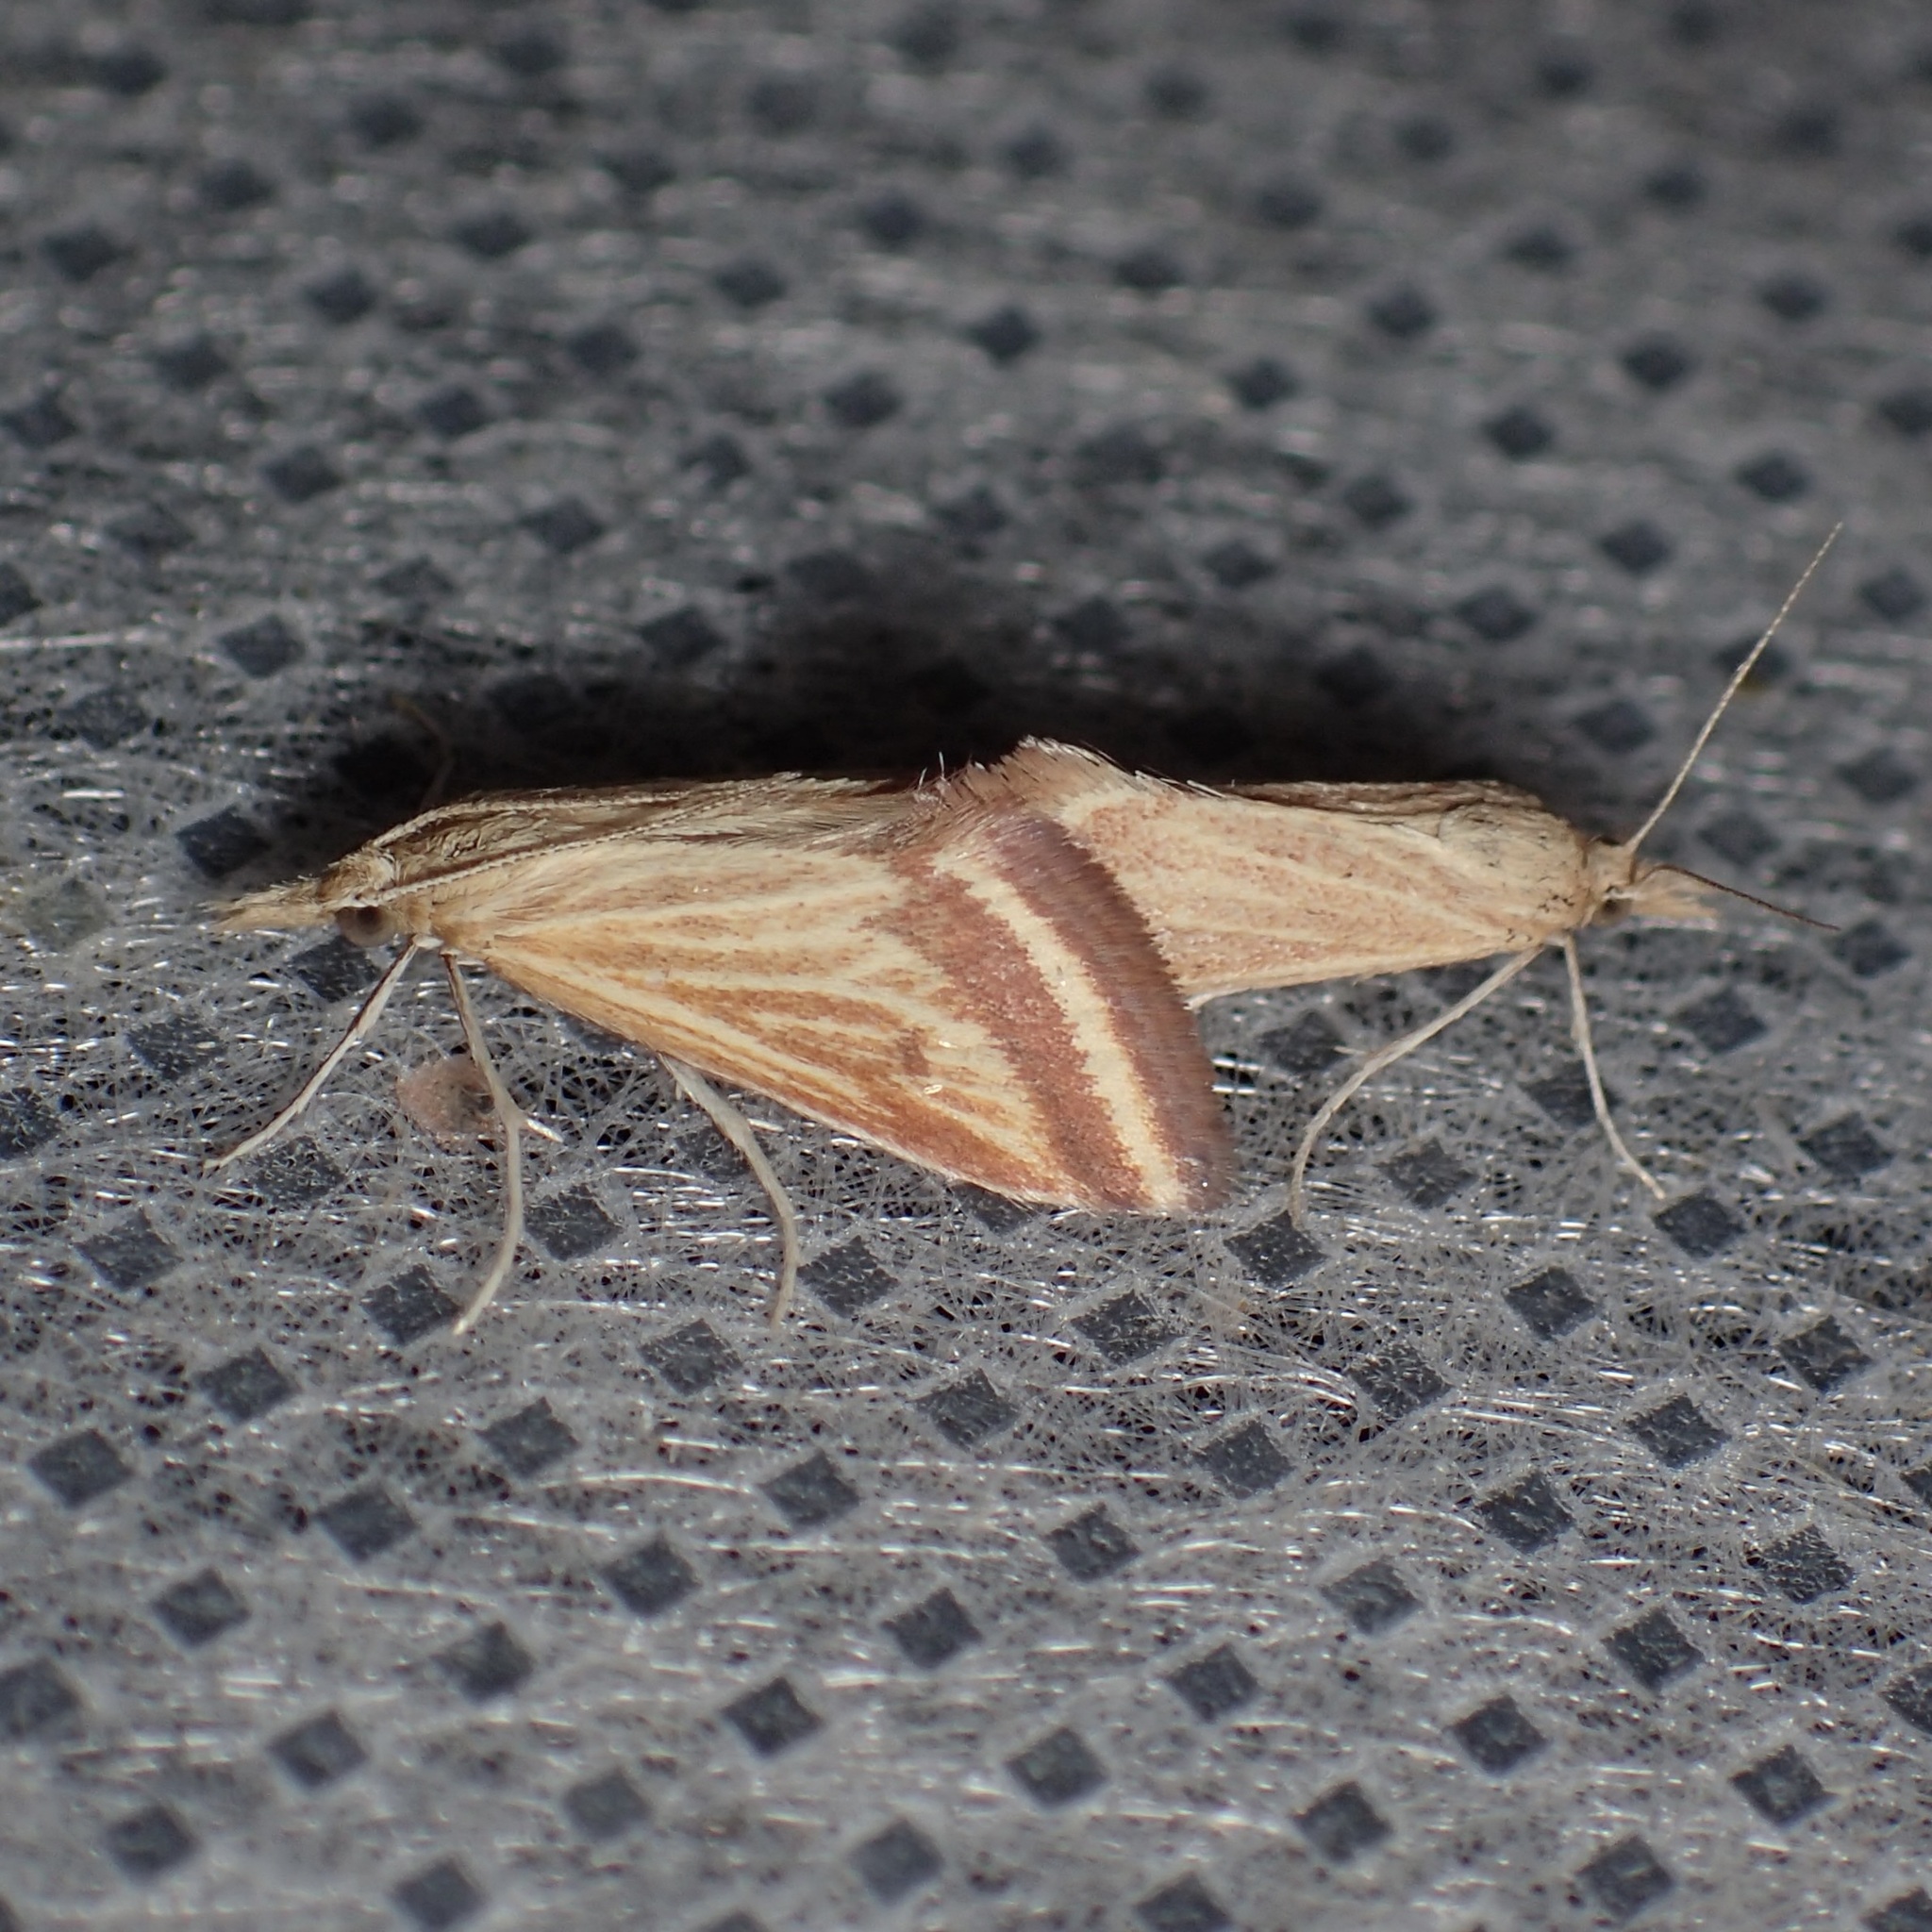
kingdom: Animalia
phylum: Arthropoda
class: Insecta
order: Lepidoptera
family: Crambidae
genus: Microtheoris
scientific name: Microtheoris ophionalis
